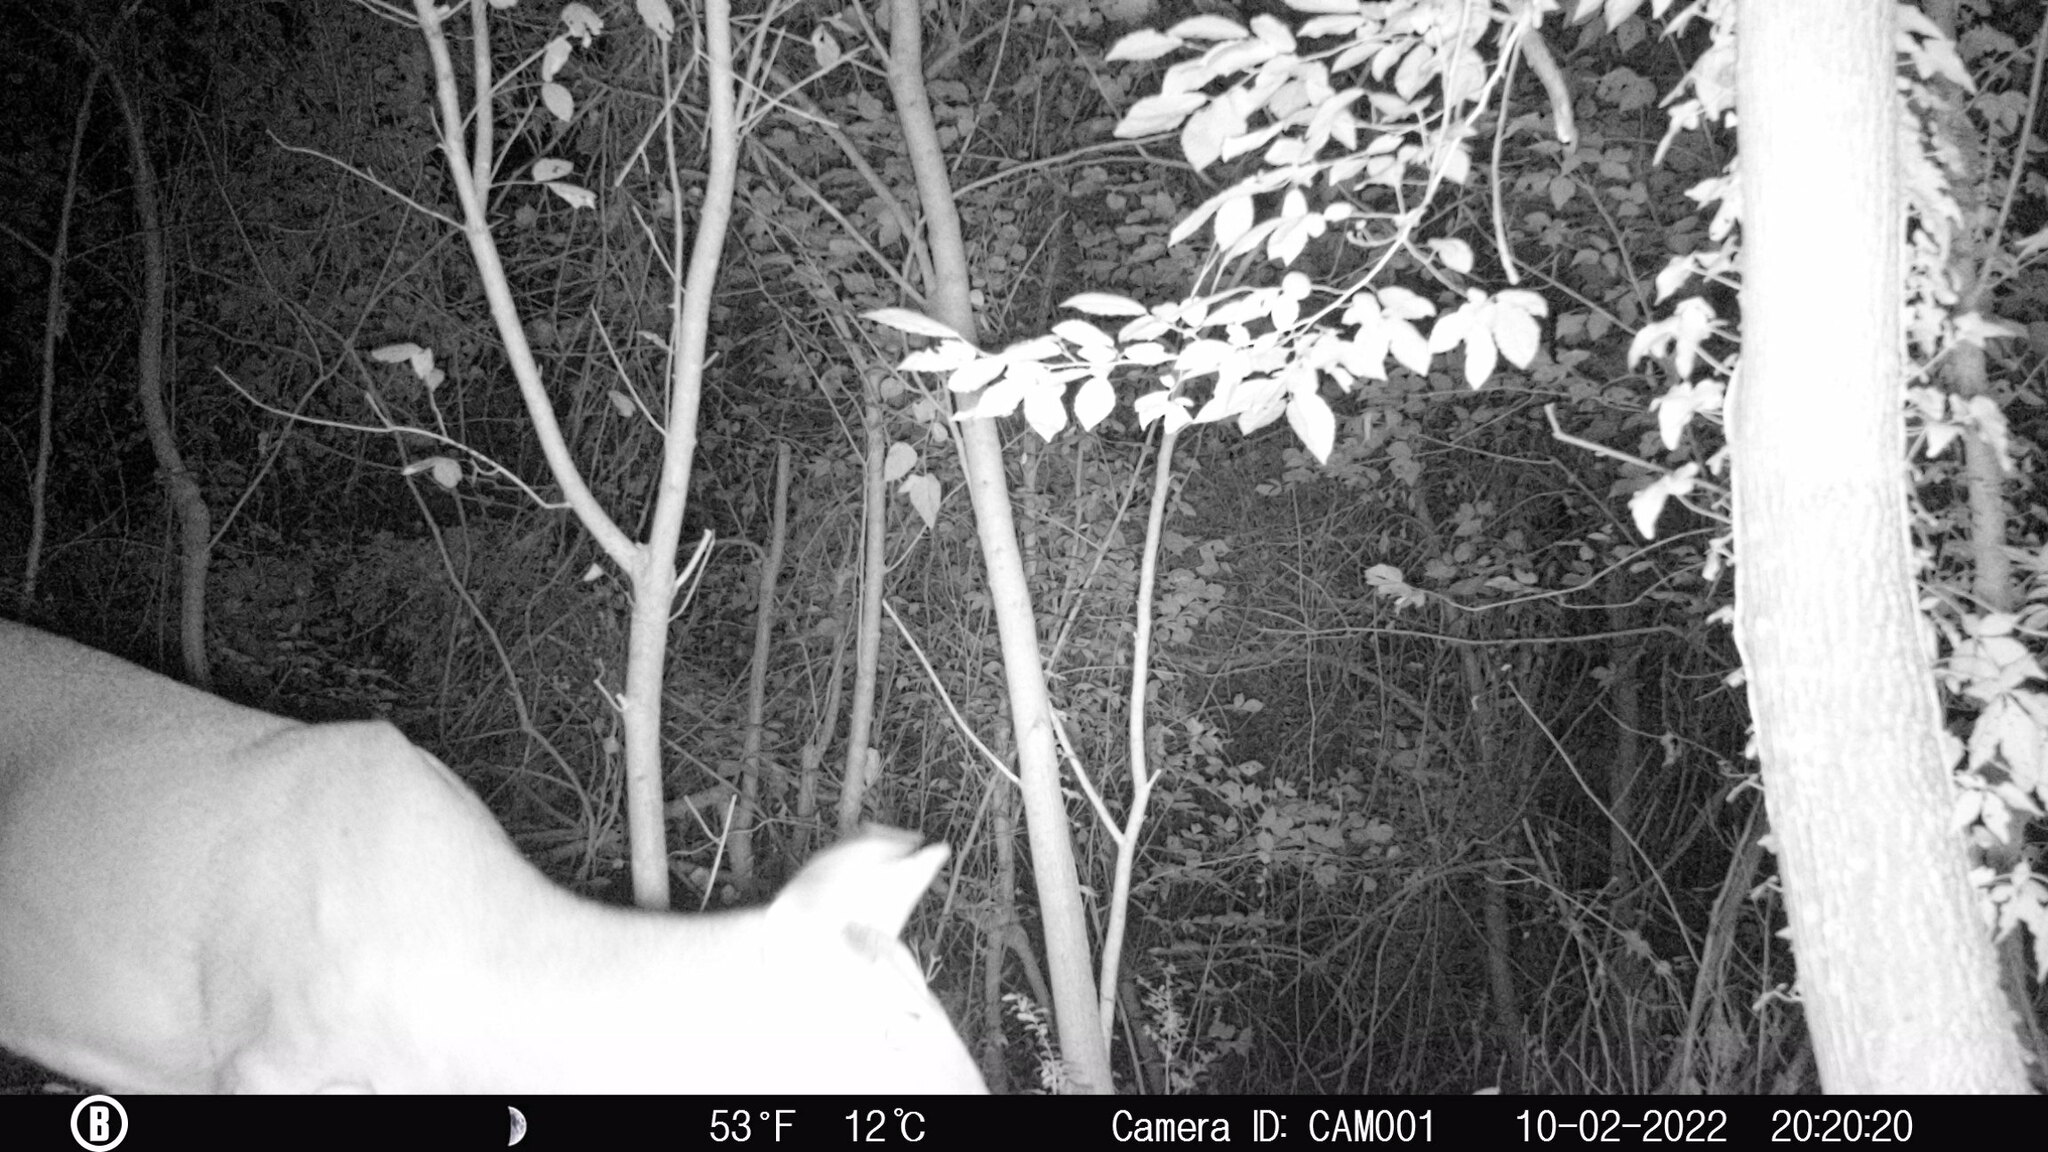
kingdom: Animalia
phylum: Chordata
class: Mammalia
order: Artiodactyla
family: Cervidae
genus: Odocoileus
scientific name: Odocoileus virginianus
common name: White-tailed deer
